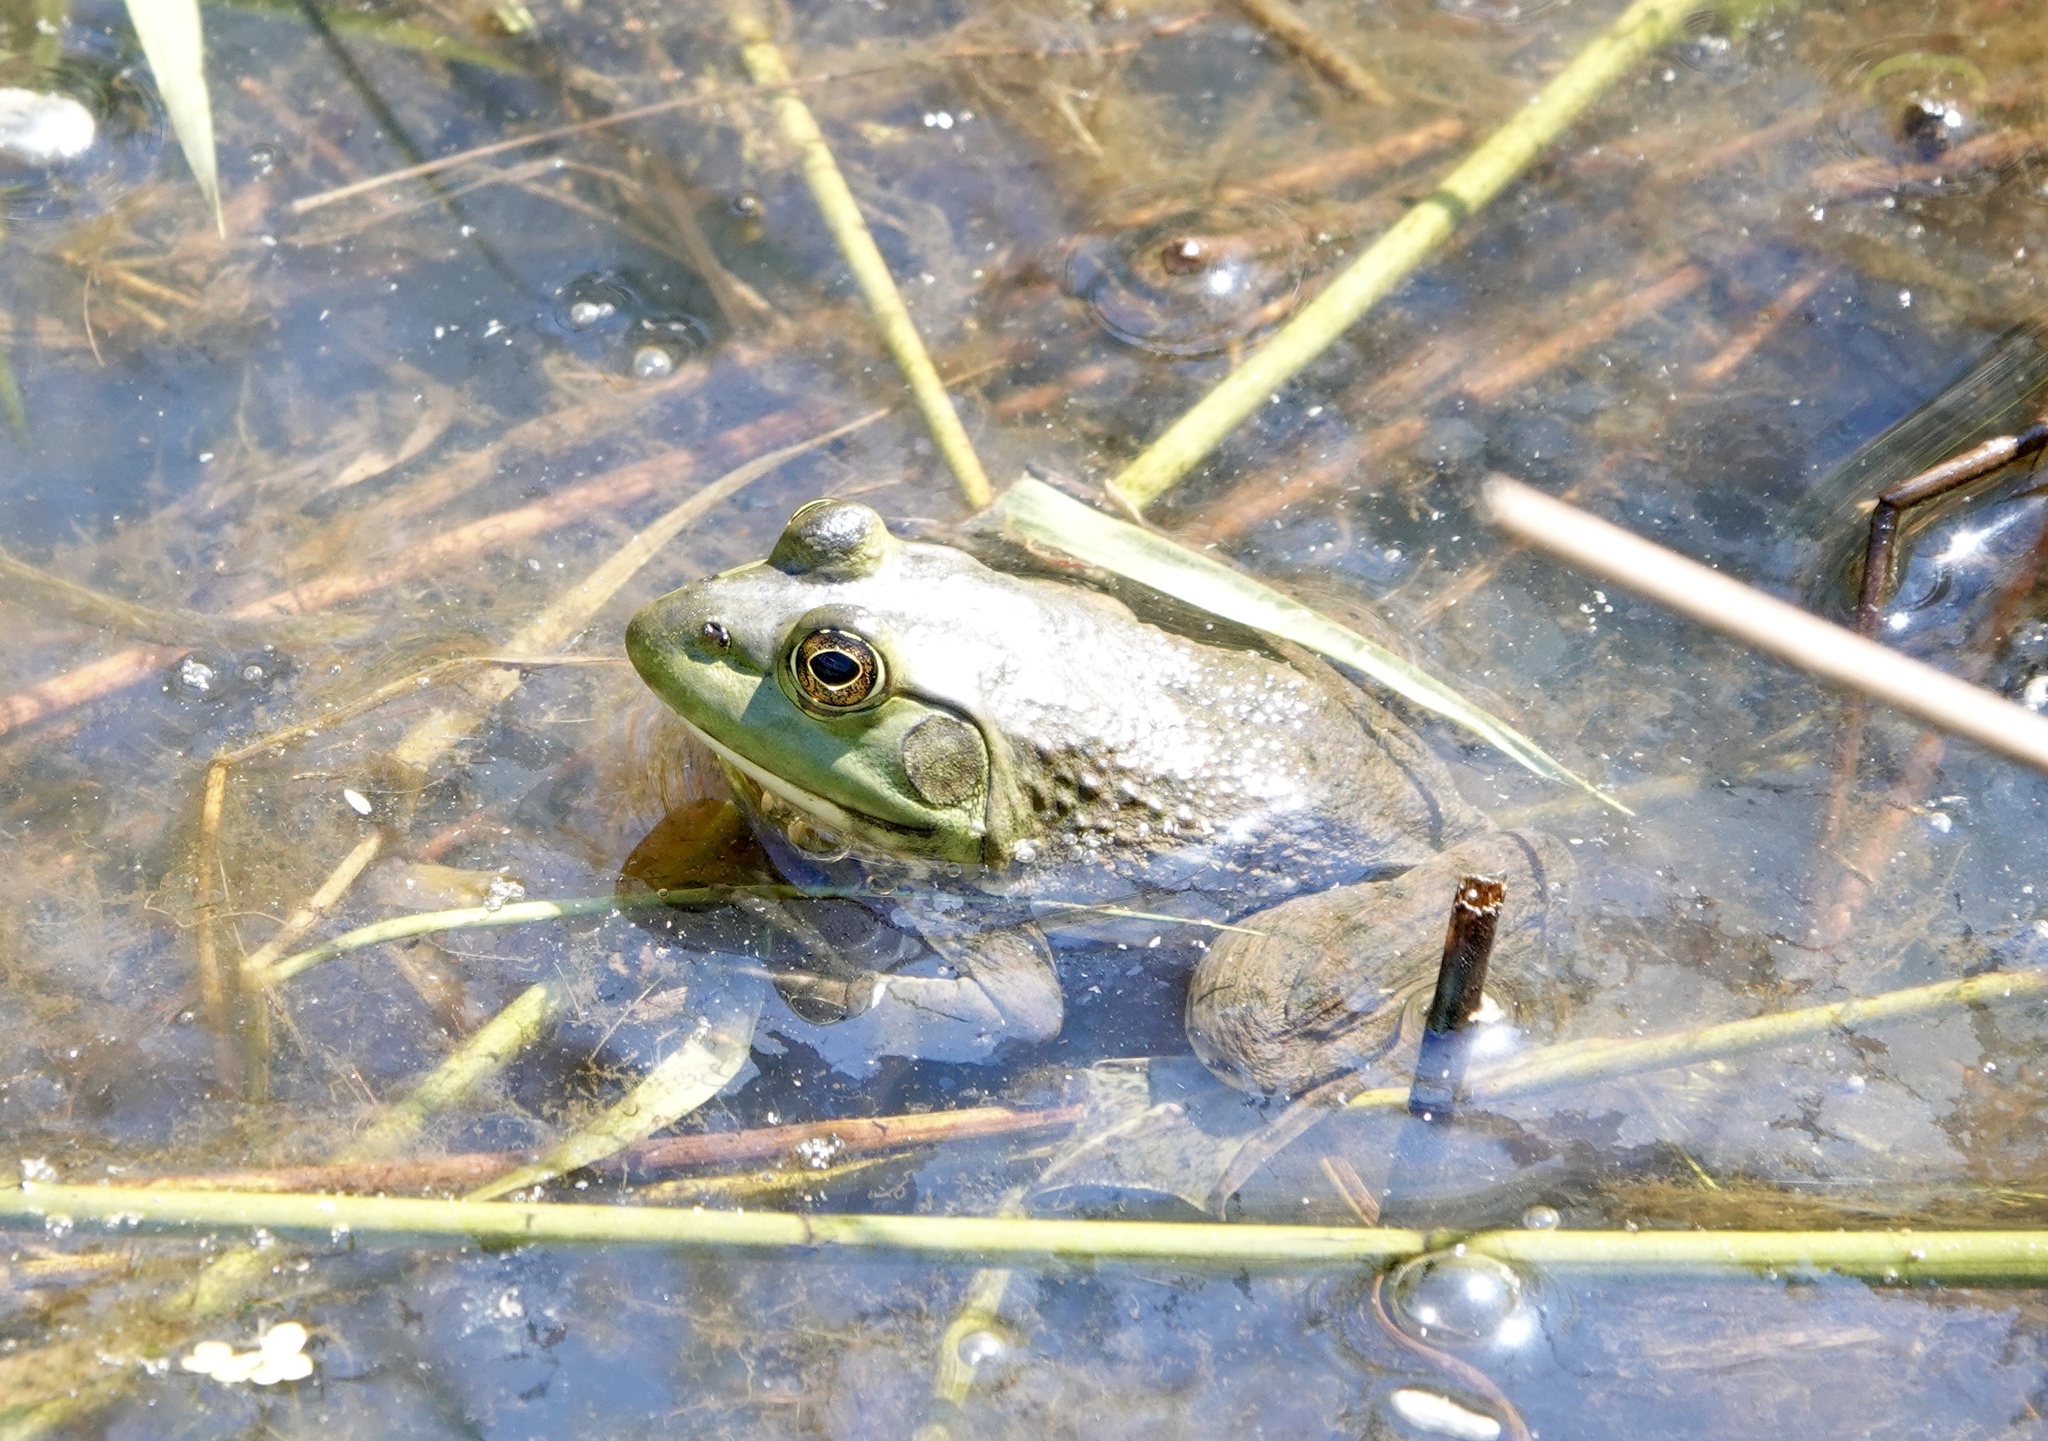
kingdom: Animalia
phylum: Chordata
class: Amphibia
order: Anura
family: Ranidae
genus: Lithobates
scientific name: Lithobates catesbeianus
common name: American bullfrog
